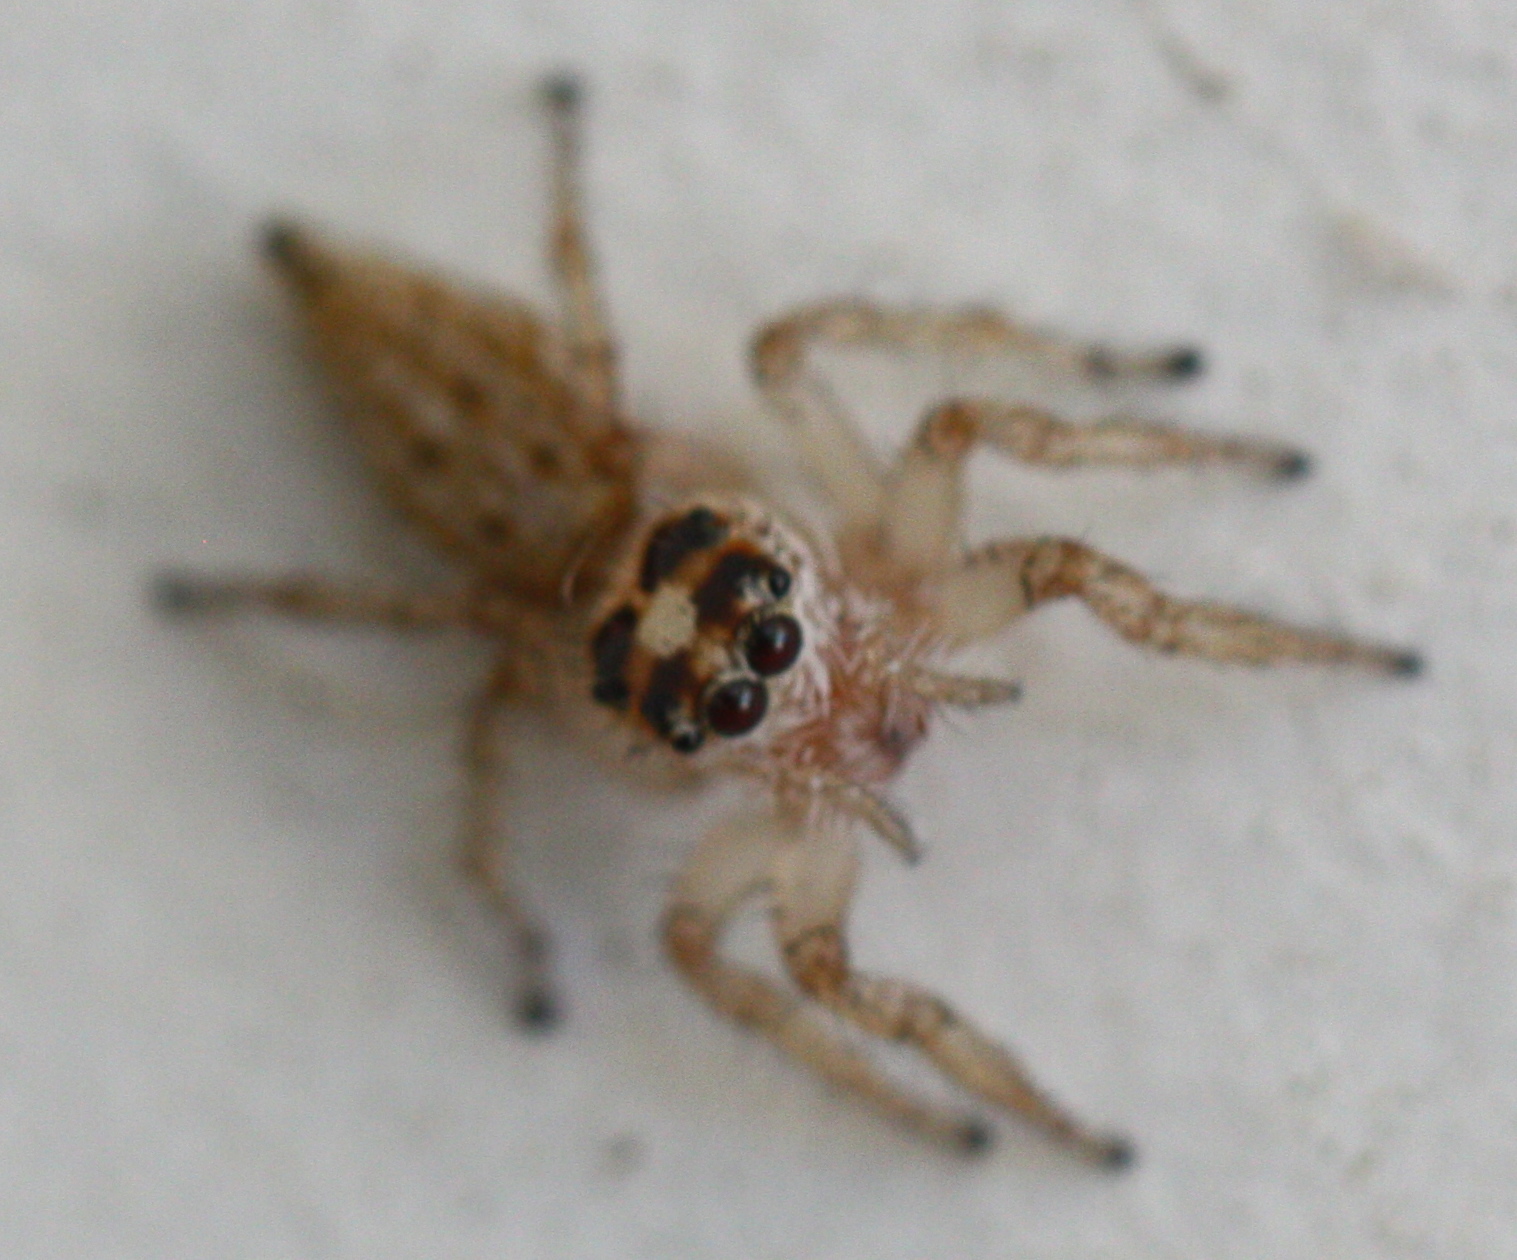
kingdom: Animalia
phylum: Arthropoda
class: Arachnida
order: Araneae
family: Salticidae
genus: Colonus
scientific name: Colonus hesperus
